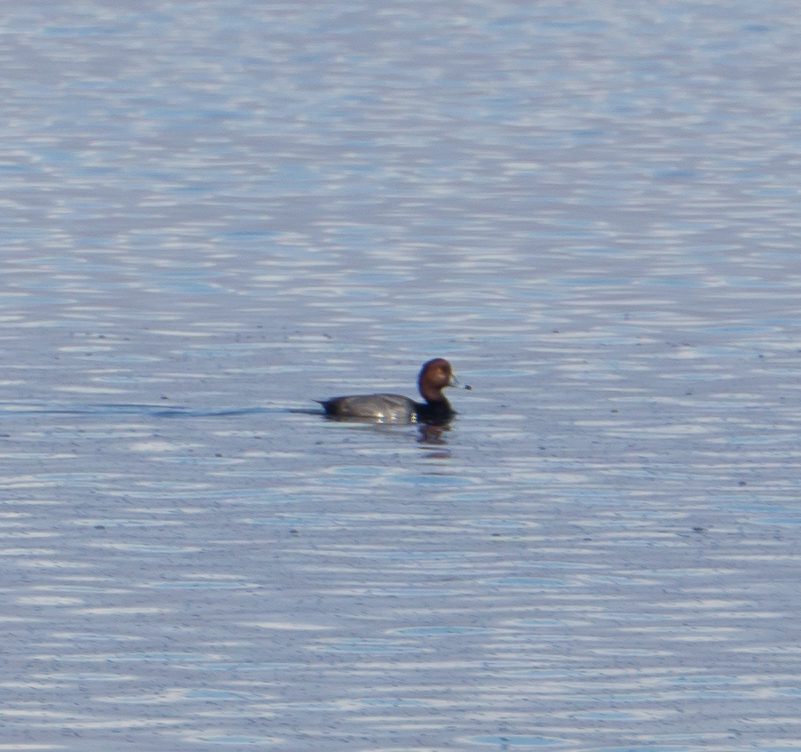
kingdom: Animalia
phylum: Chordata
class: Aves
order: Anseriformes
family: Anatidae
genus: Aythya
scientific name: Aythya americana
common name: Redhead
